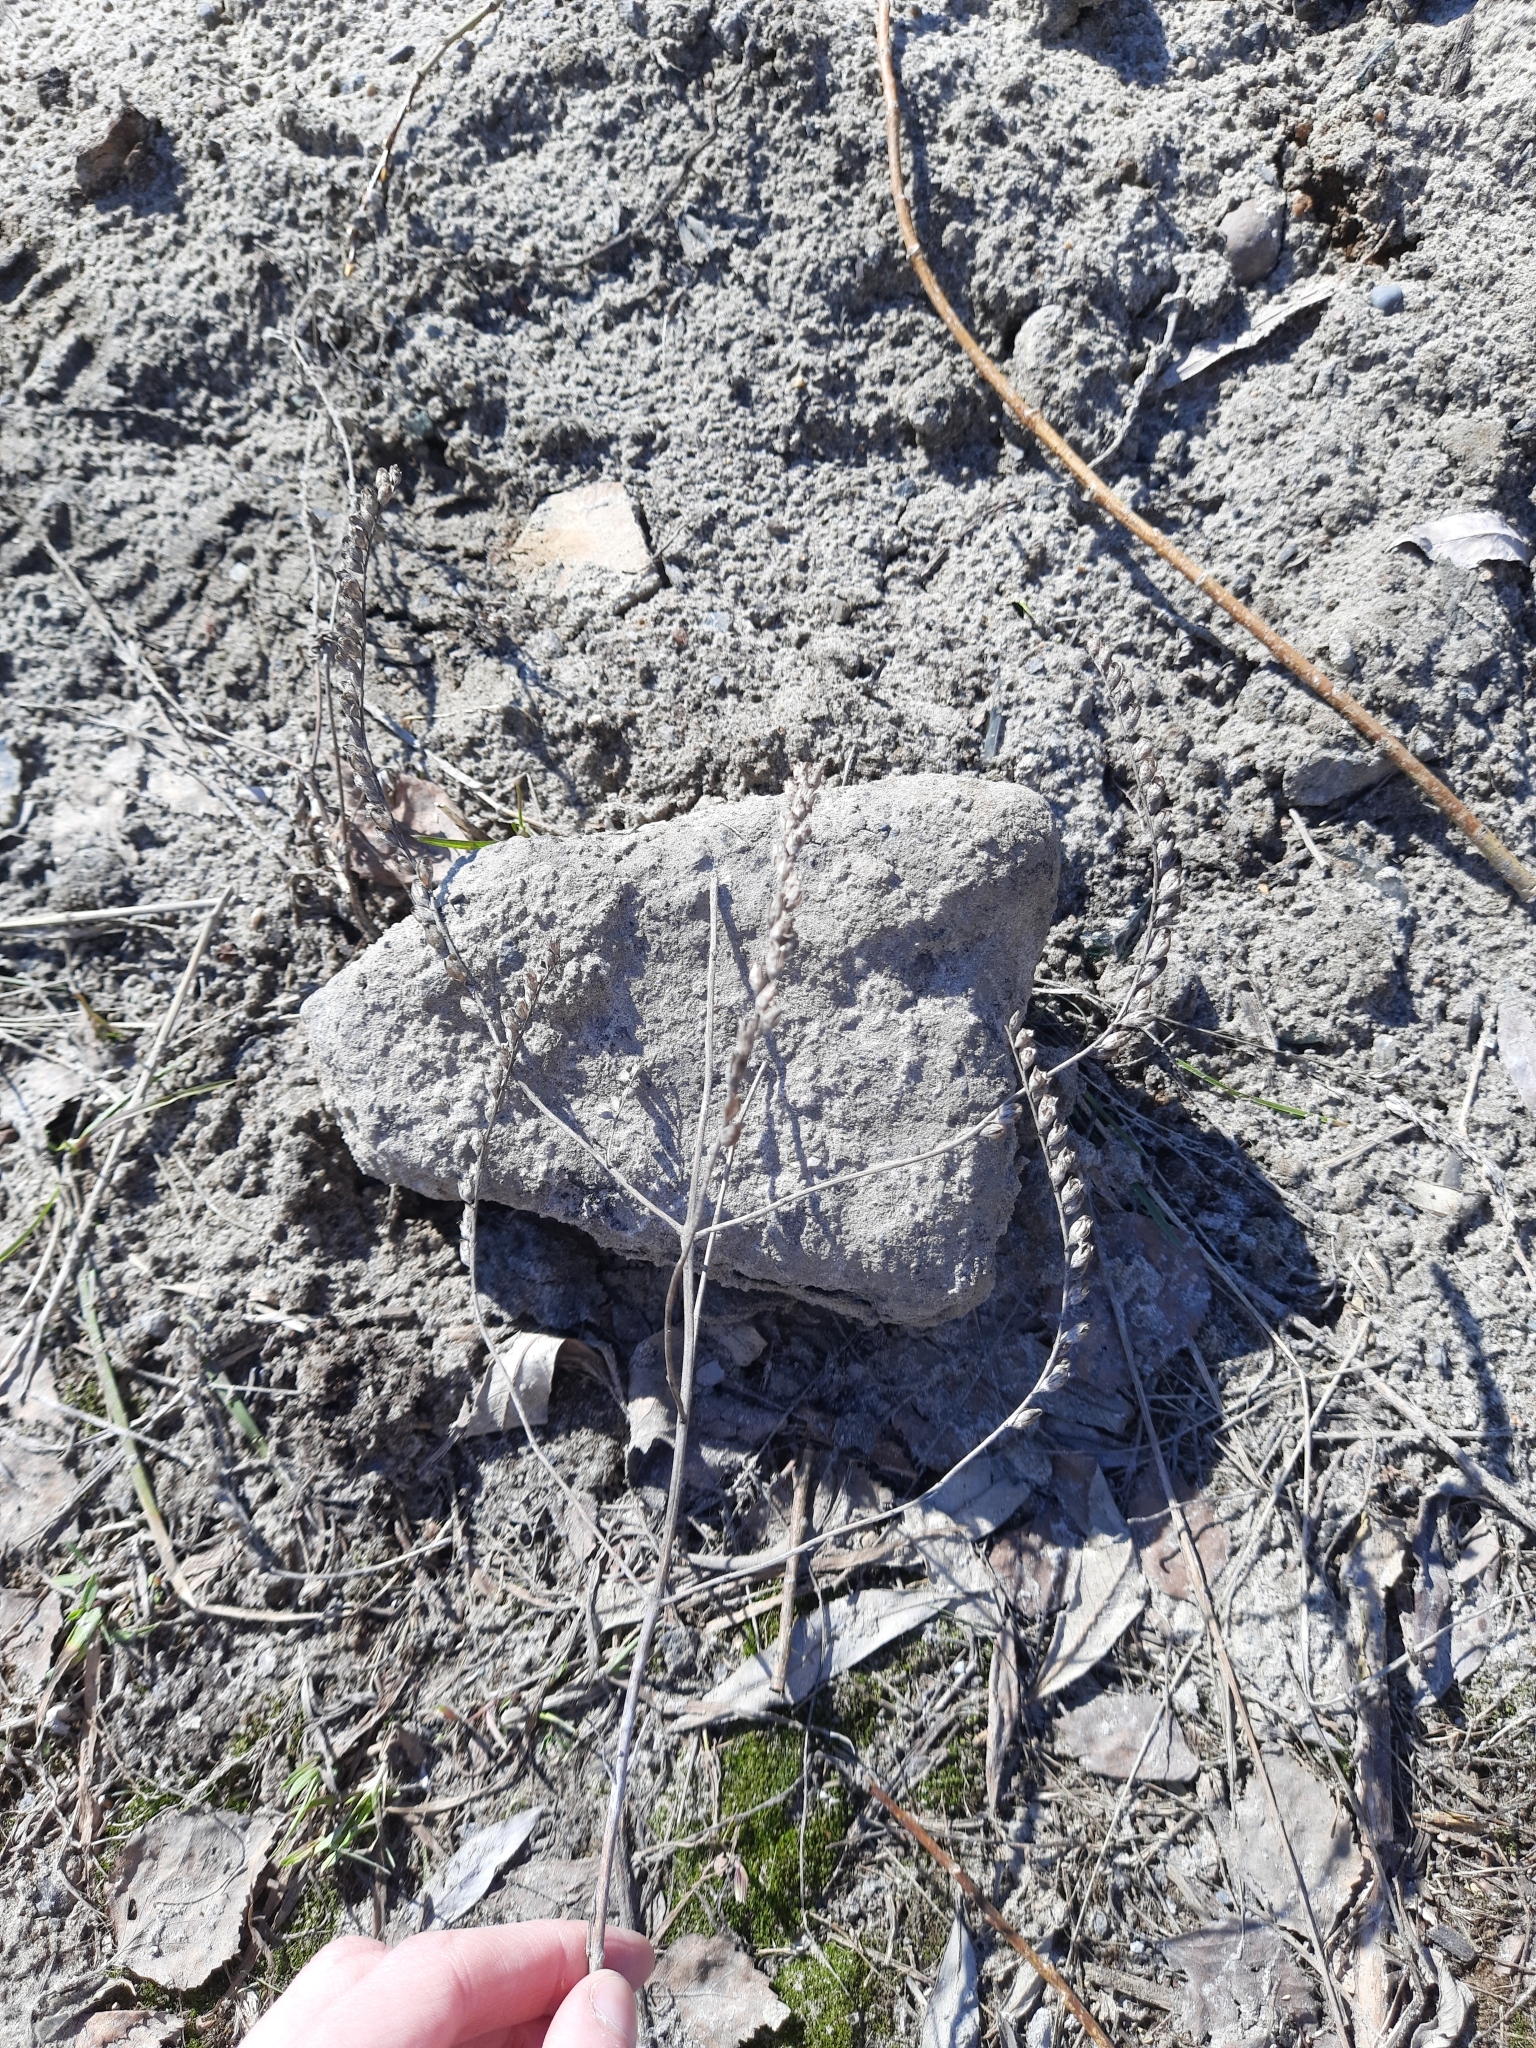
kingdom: Plantae
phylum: Tracheophyta
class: Magnoliopsida
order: Lamiales
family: Orobanchaceae
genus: Odontites
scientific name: Odontites vulgaris
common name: Broomrape
